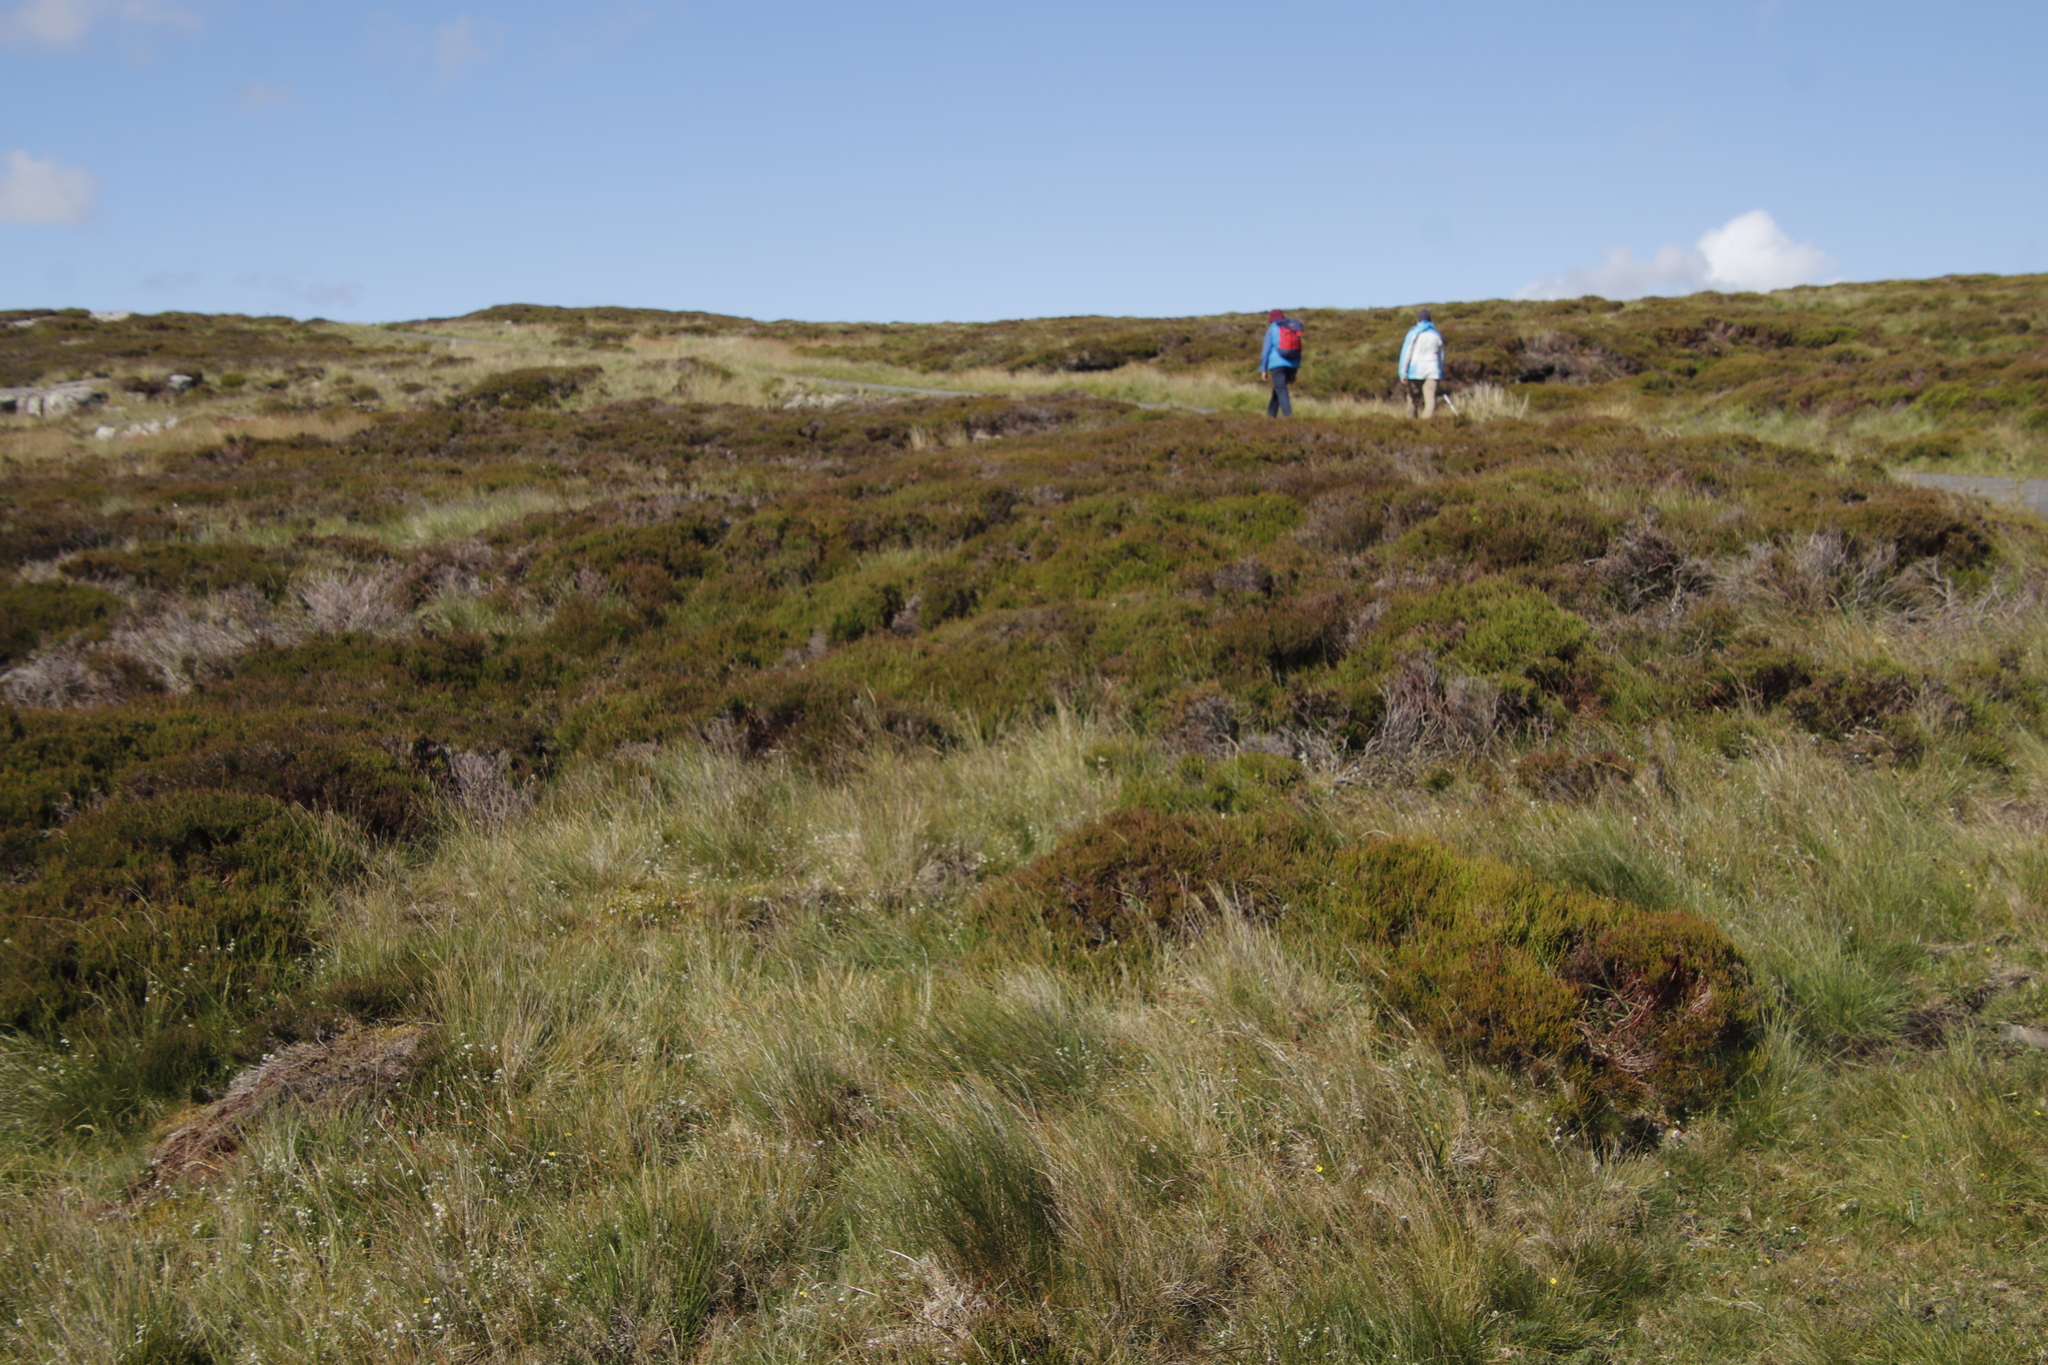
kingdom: Plantae
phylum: Tracheophyta
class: Magnoliopsida
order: Ericales
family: Ericaceae
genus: Calluna
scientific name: Calluna vulgaris
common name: Heather
